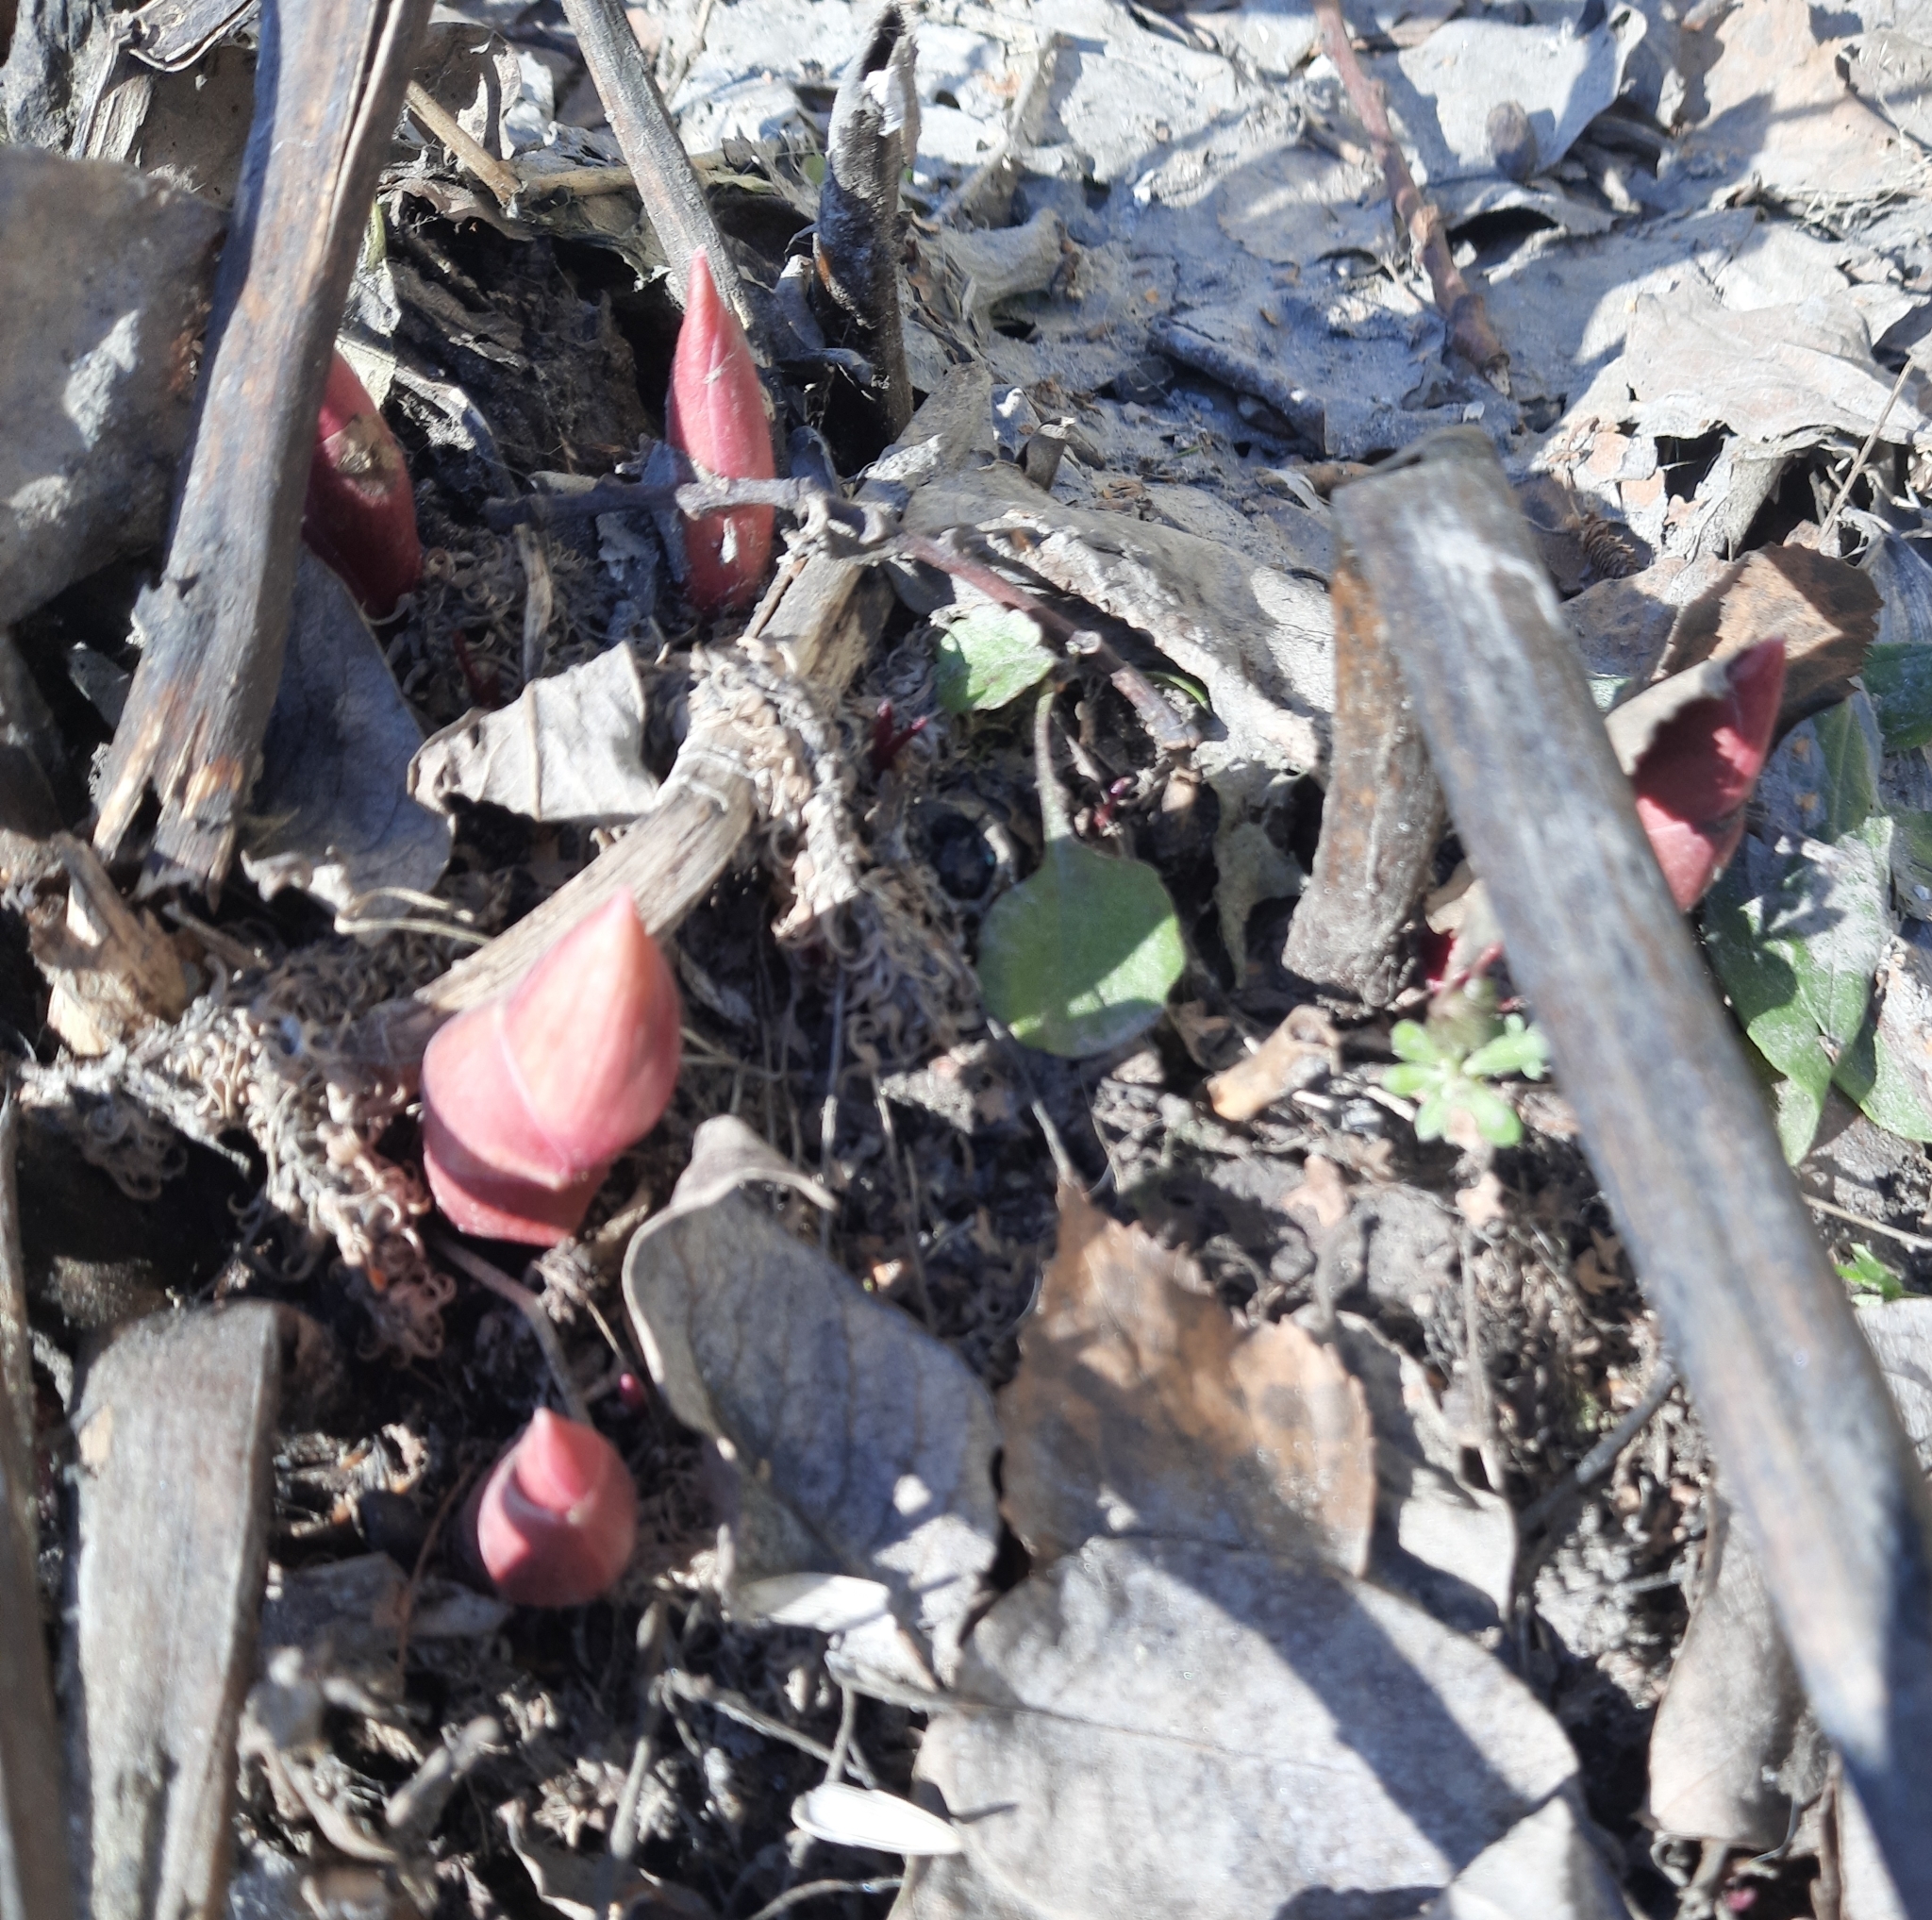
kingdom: Plantae
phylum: Tracheophyta
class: Magnoliopsida
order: Saxifragales
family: Paeoniaceae
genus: Paeonia
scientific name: Paeonia anomala
